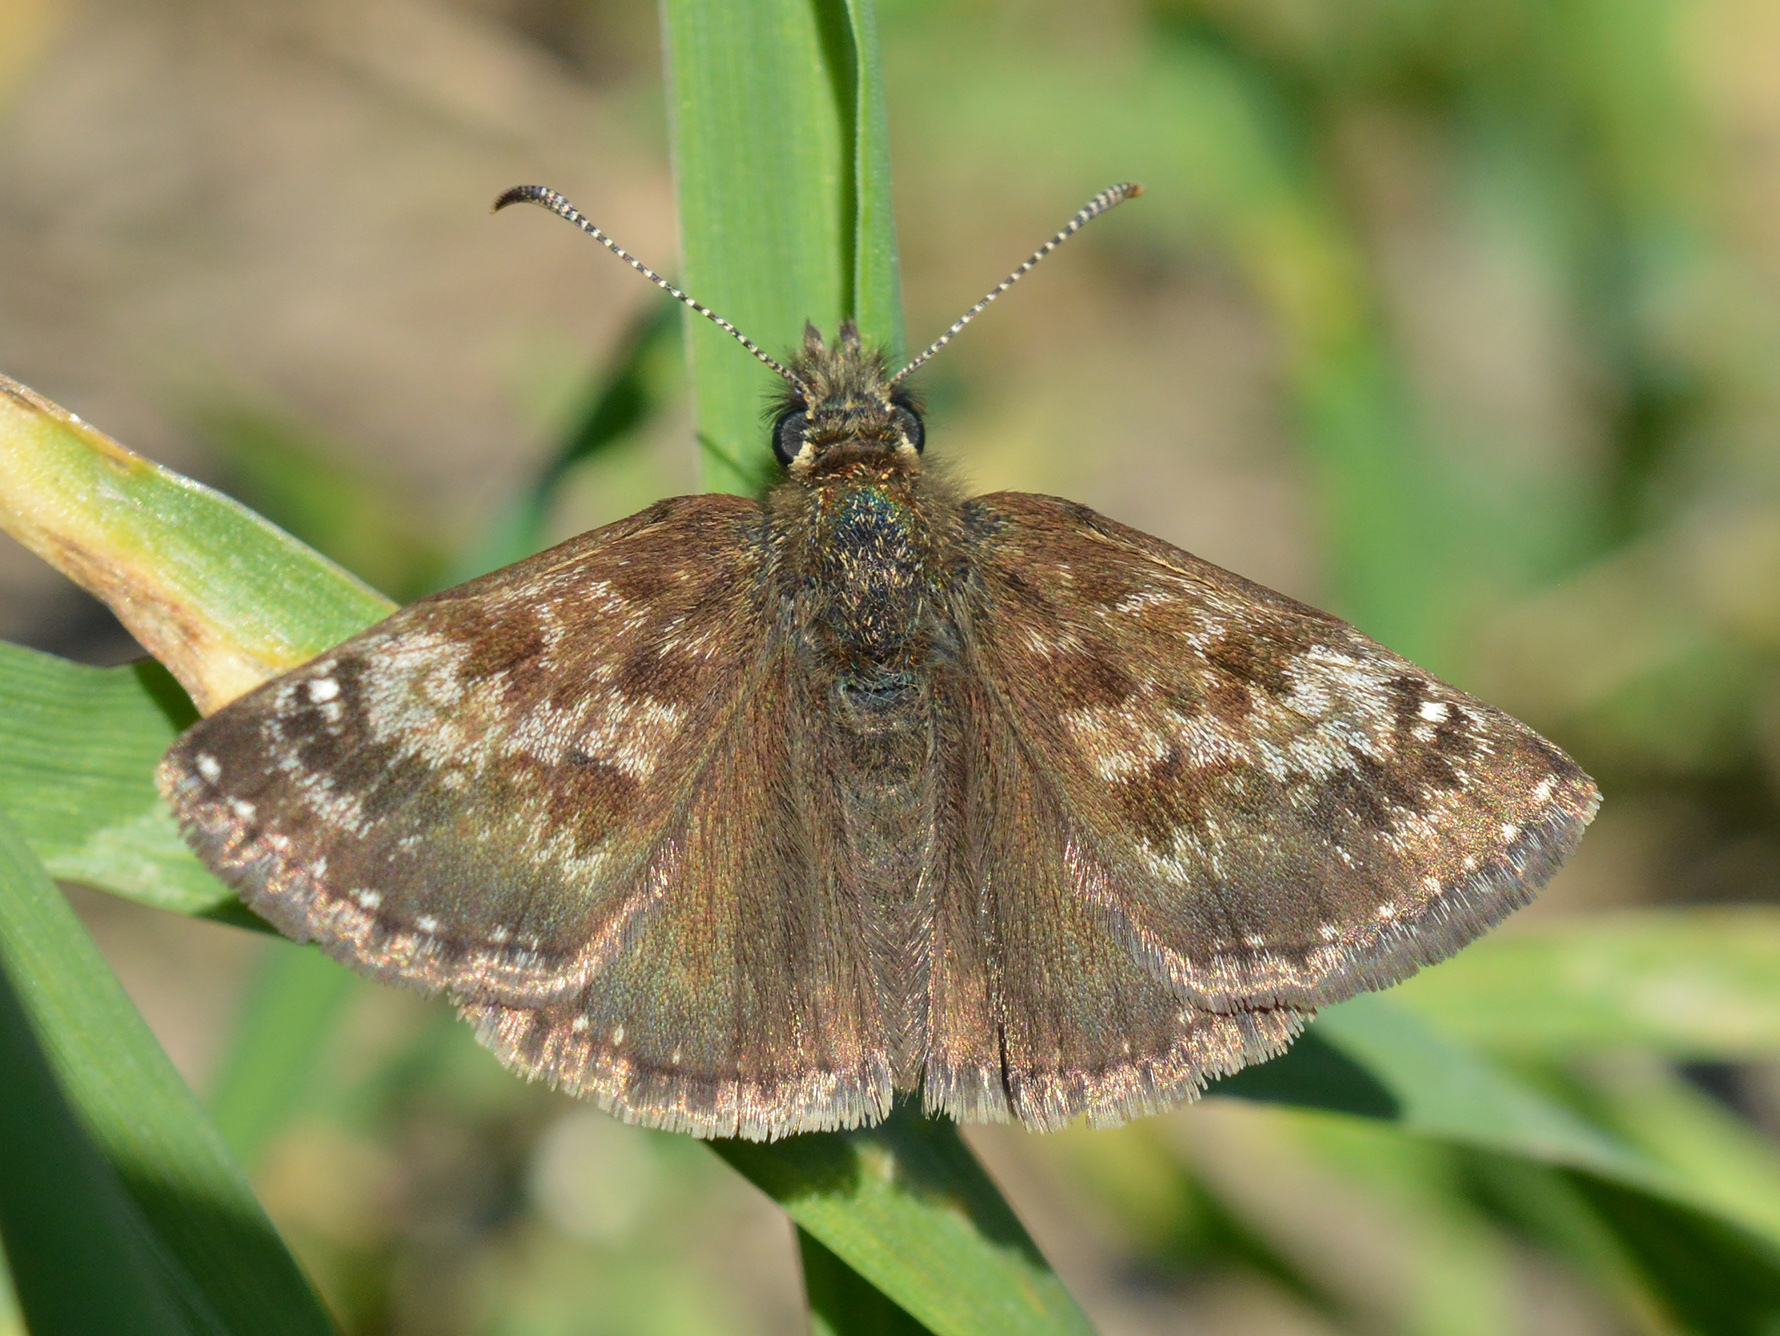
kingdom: Animalia
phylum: Arthropoda
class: Insecta
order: Lepidoptera
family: Hesperiidae
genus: Erynnis
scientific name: Erynnis tages
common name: Dingy skipper
